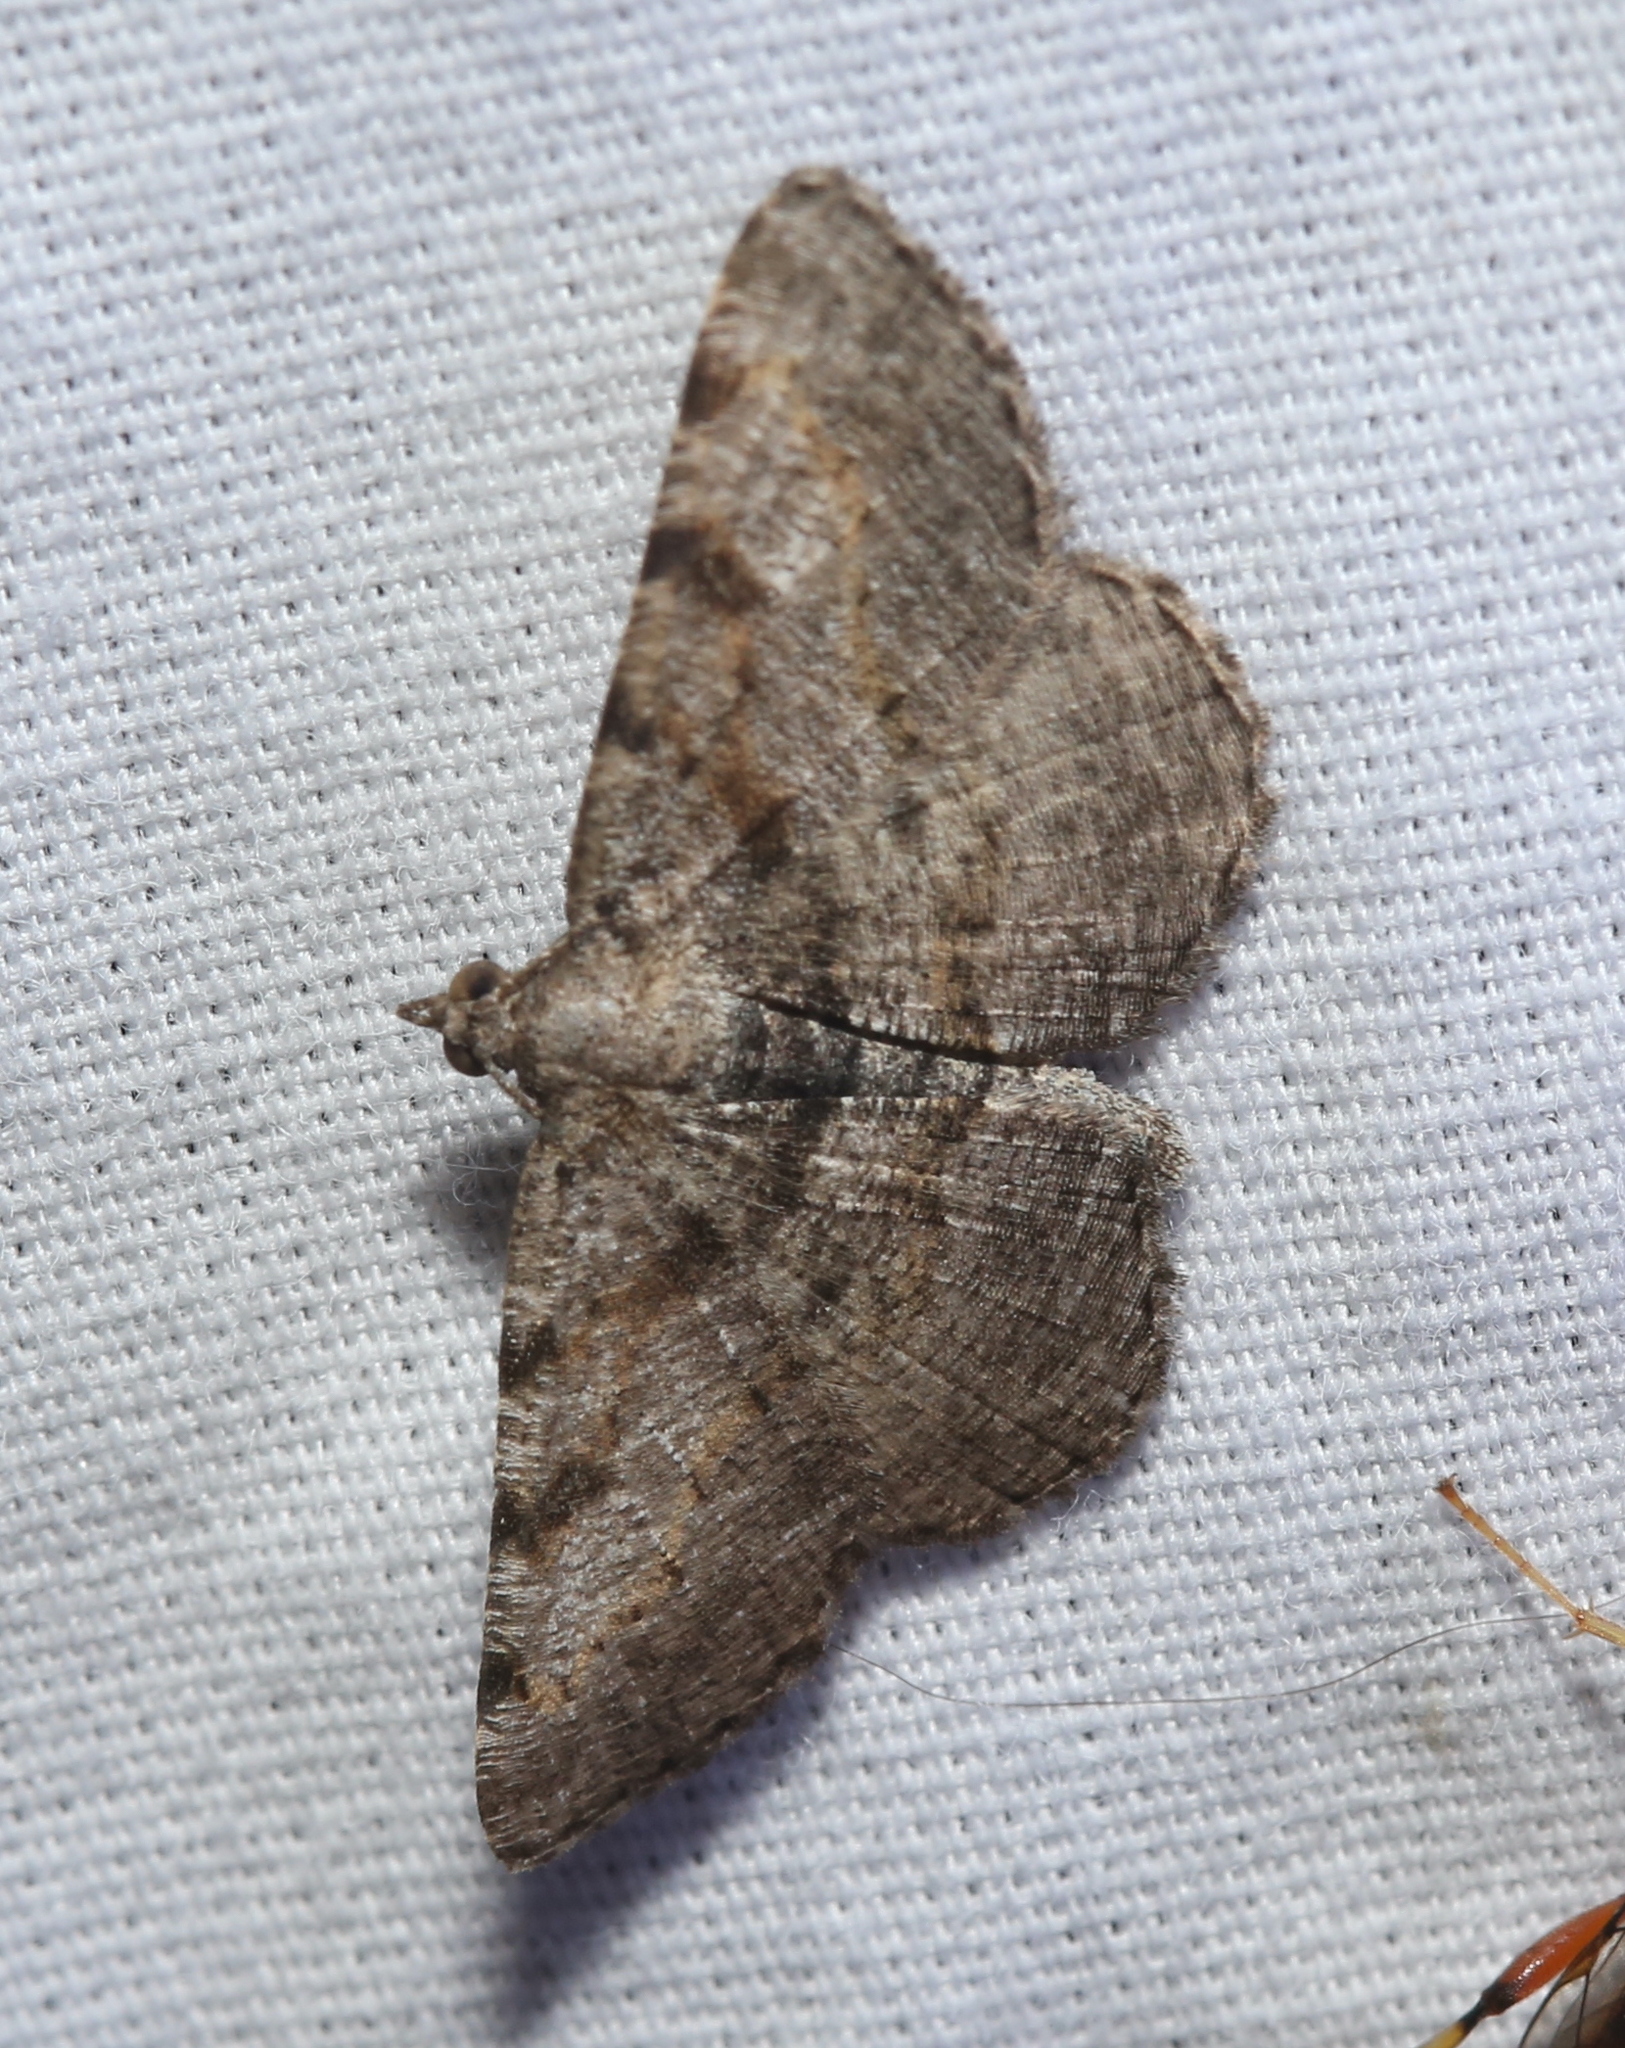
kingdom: Animalia
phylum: Arthropoda
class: Insecta
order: Lepidoptera
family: Geometridae
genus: Digrammia
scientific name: Digrammia gnophosaria
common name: Hollow-spotted angle
